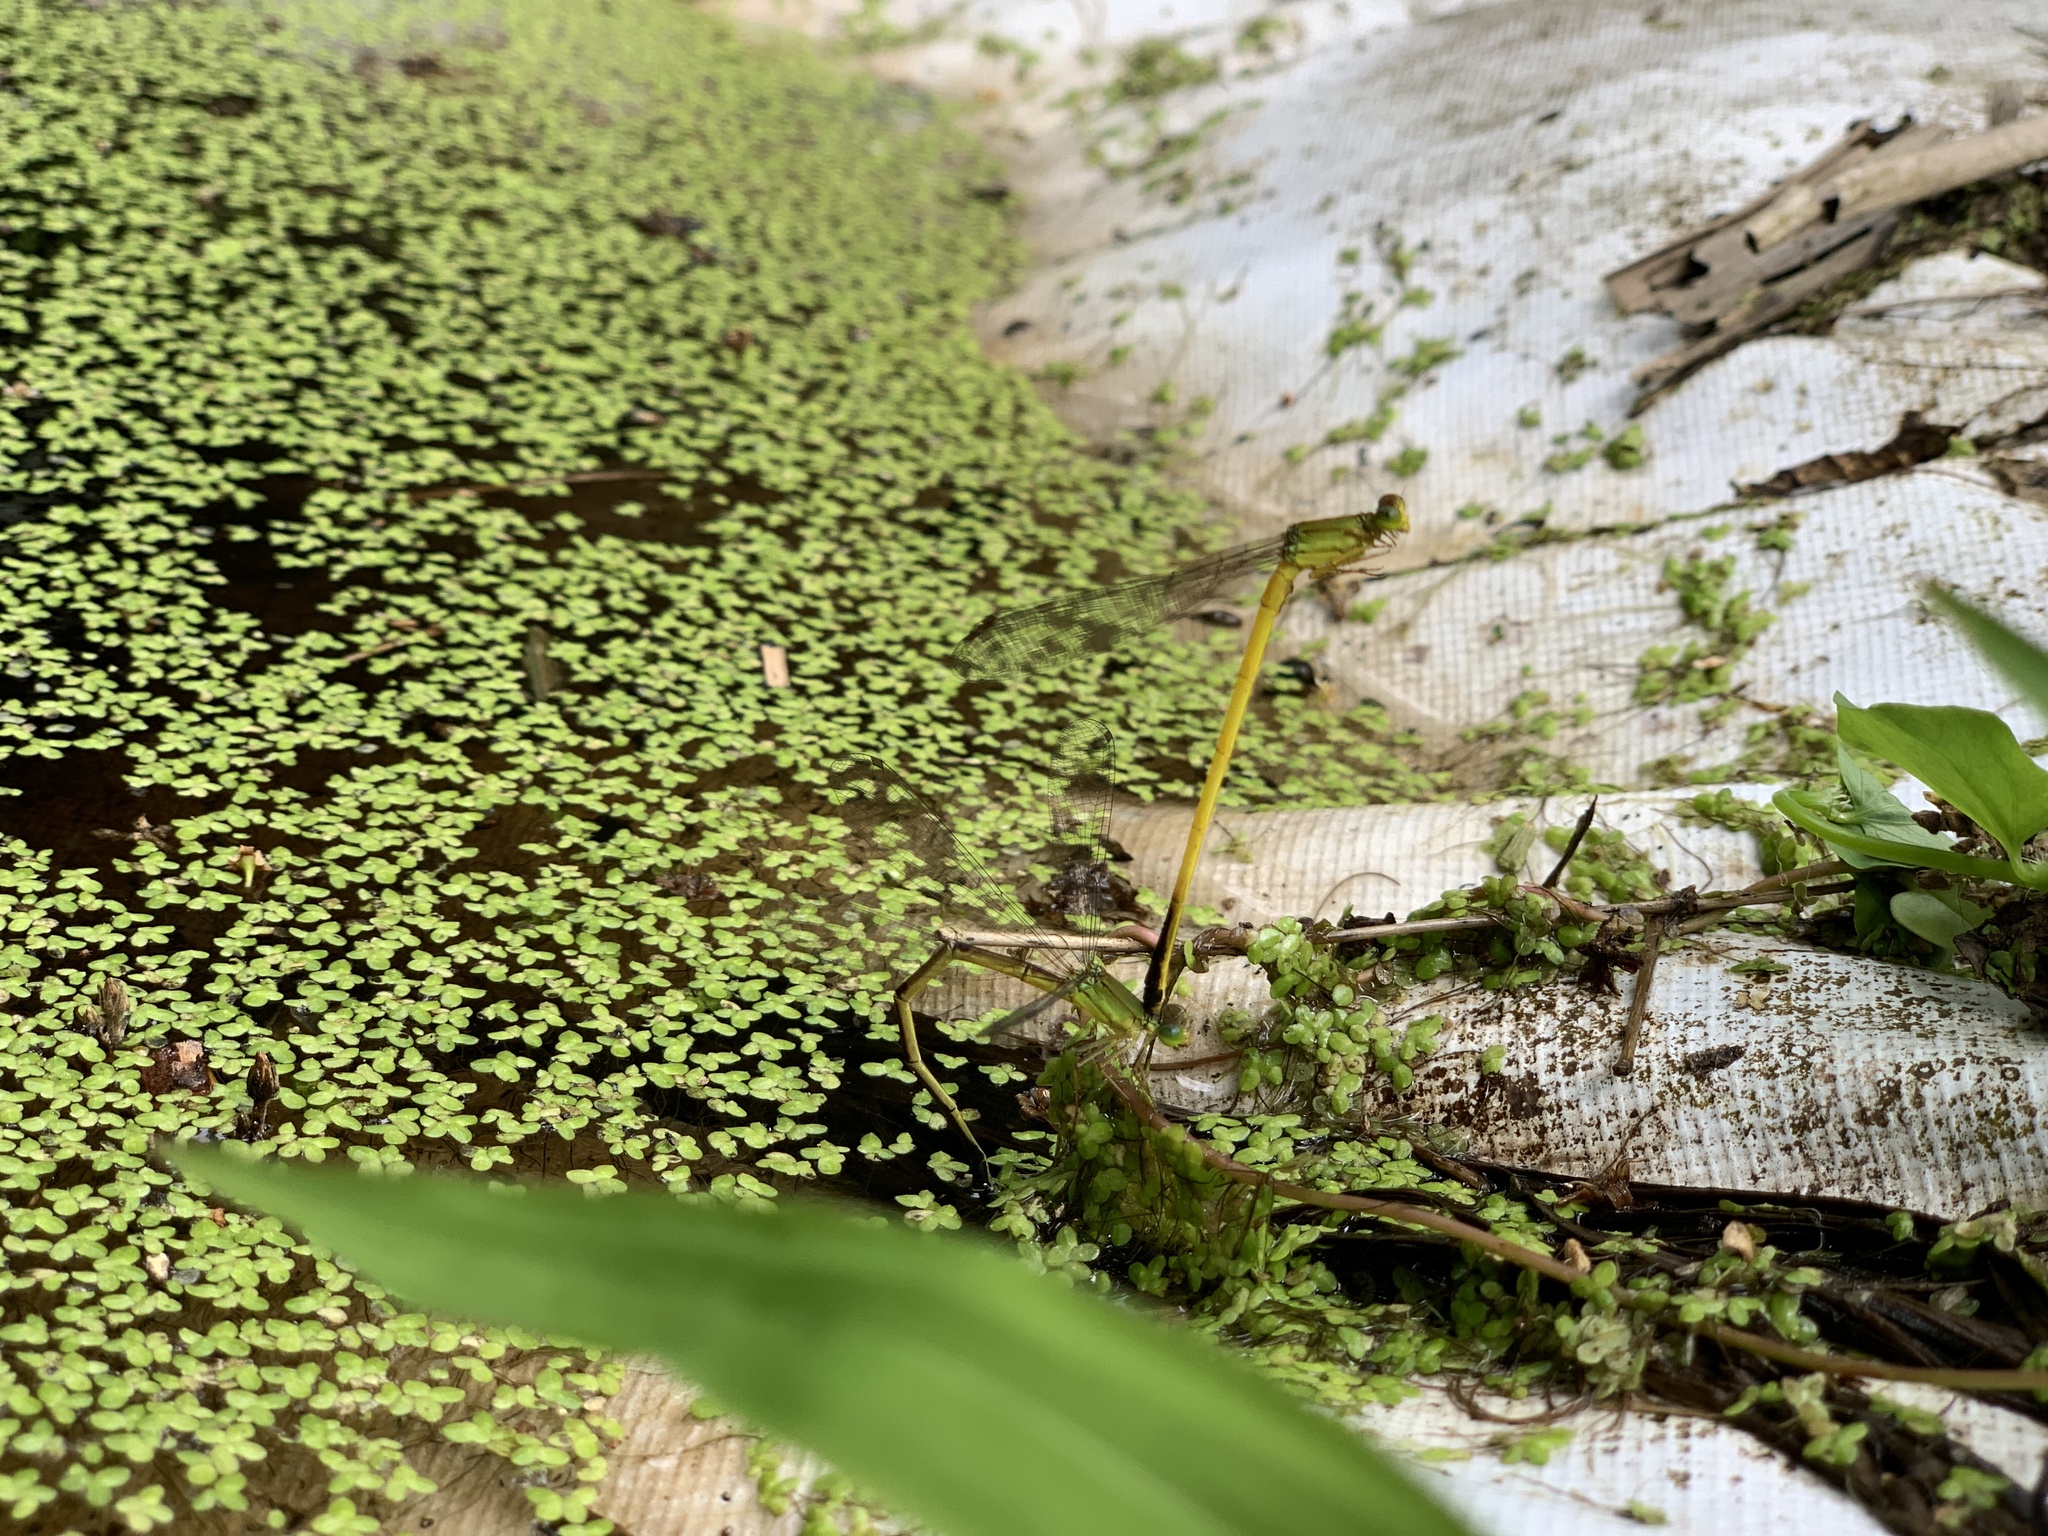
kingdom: Animalia
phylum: Arthropoda
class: Insecta
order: Odonata
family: Coenagrionidae
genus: Ceriagrion
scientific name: Ceriagrion fallax
